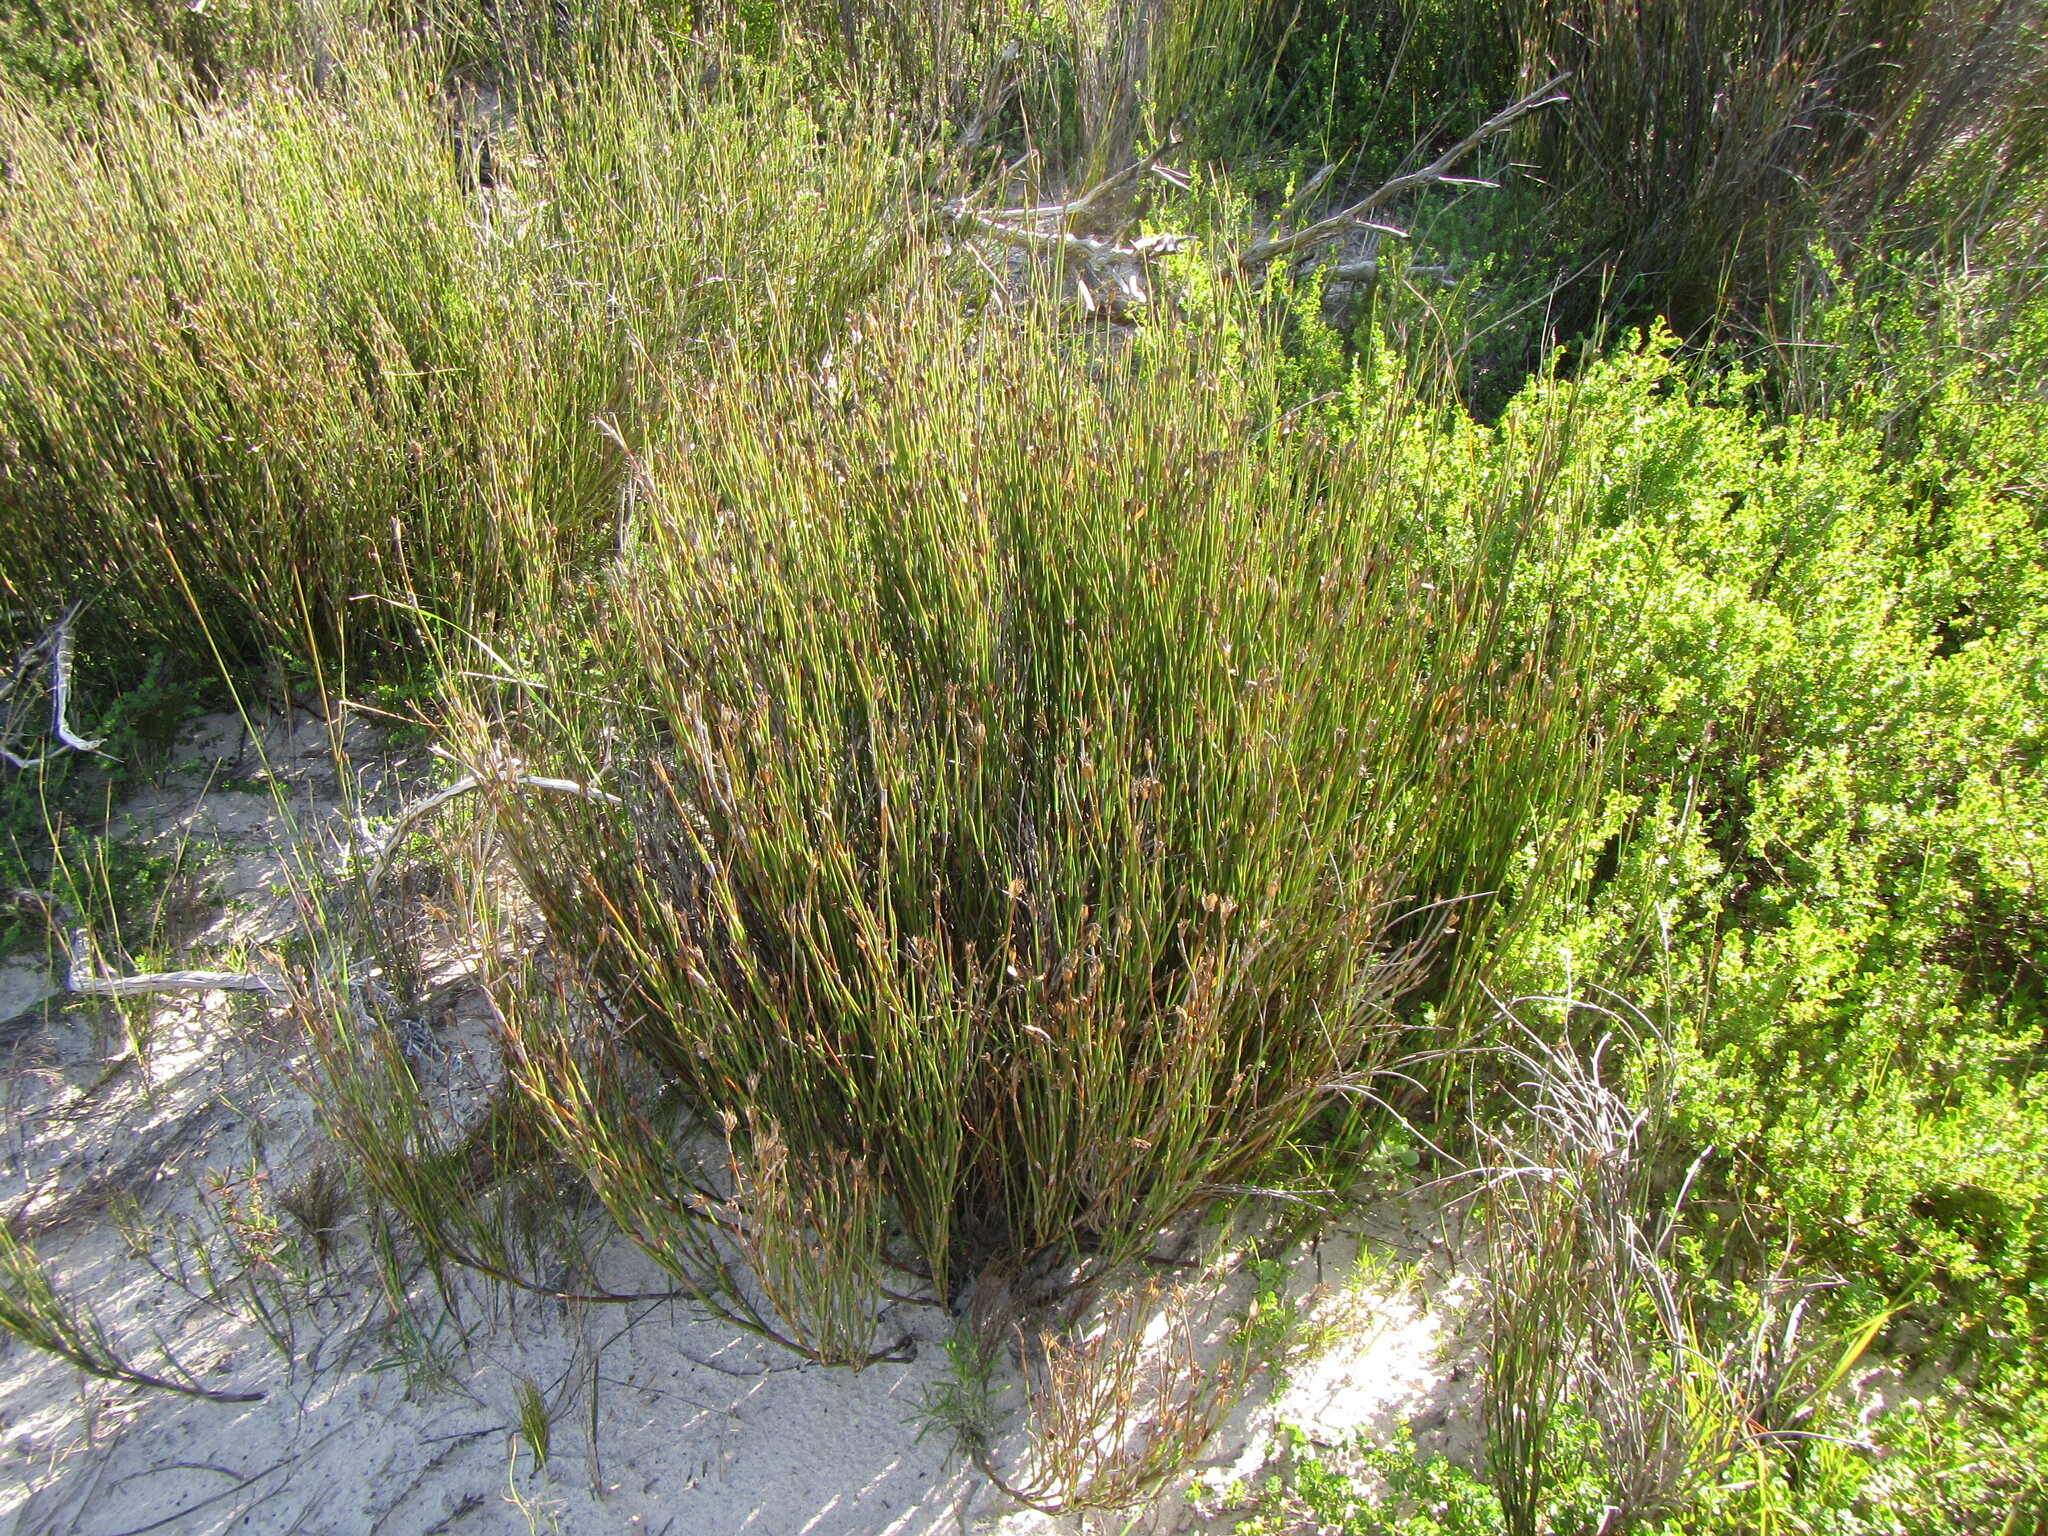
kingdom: Plantae
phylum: Tracheophyta
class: Liliopsida
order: Poales
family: Restionaceae
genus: Willdenowia
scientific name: Willdenowia teres
